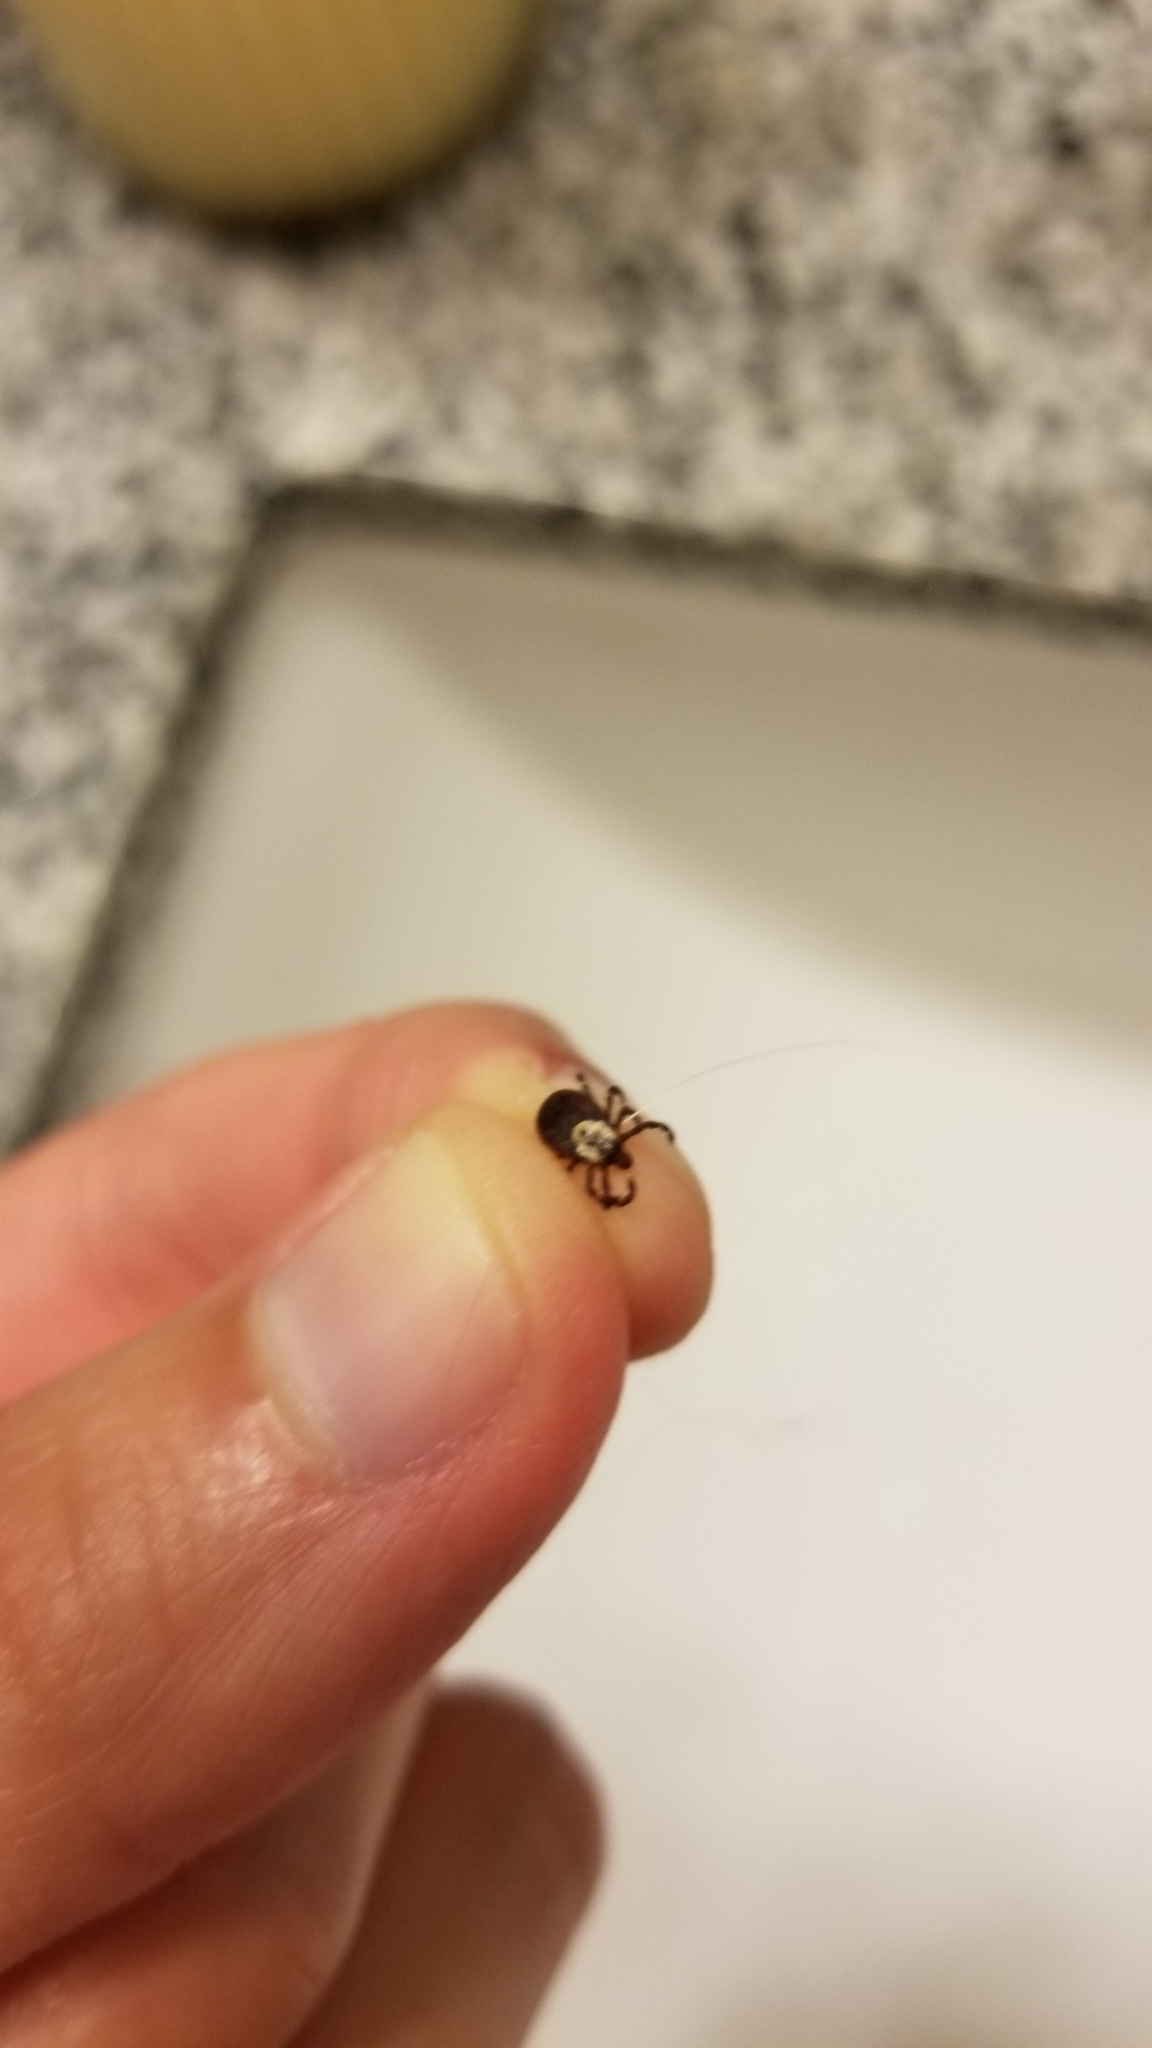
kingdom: Animalia
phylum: Arthropoda
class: Arachnida
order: Ixodida
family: Ixodidae
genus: Dermacentor
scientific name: Dermacentor variabilis
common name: American dog tick
